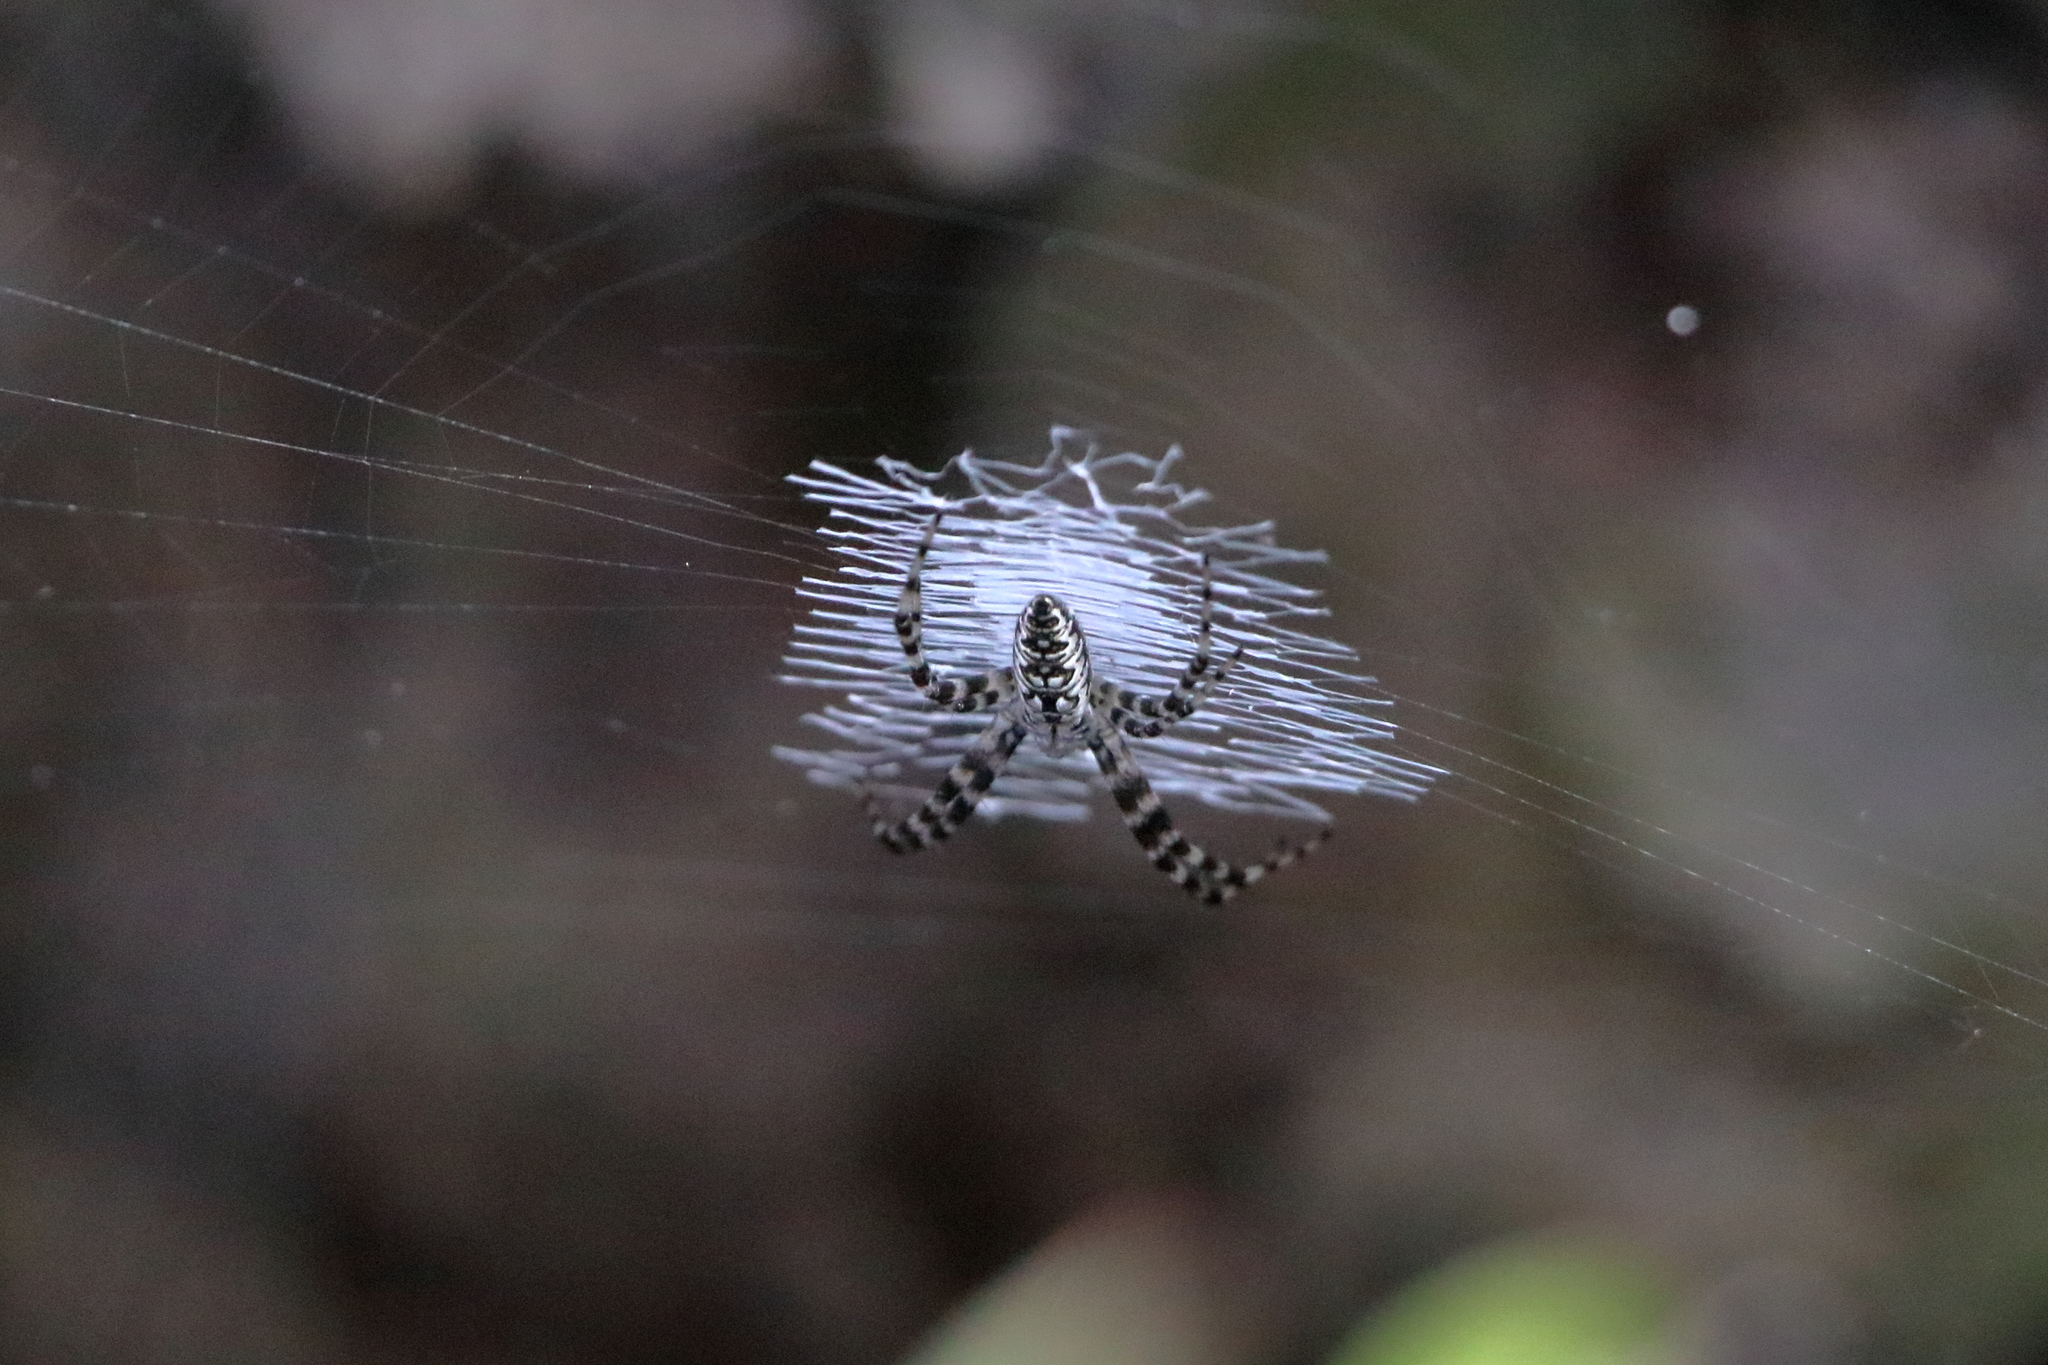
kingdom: Animalia
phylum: Arthropoda
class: Arachnida
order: Araneae
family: Araneidae
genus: Argiope
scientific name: Argiope aurantia
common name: Orb weavers
